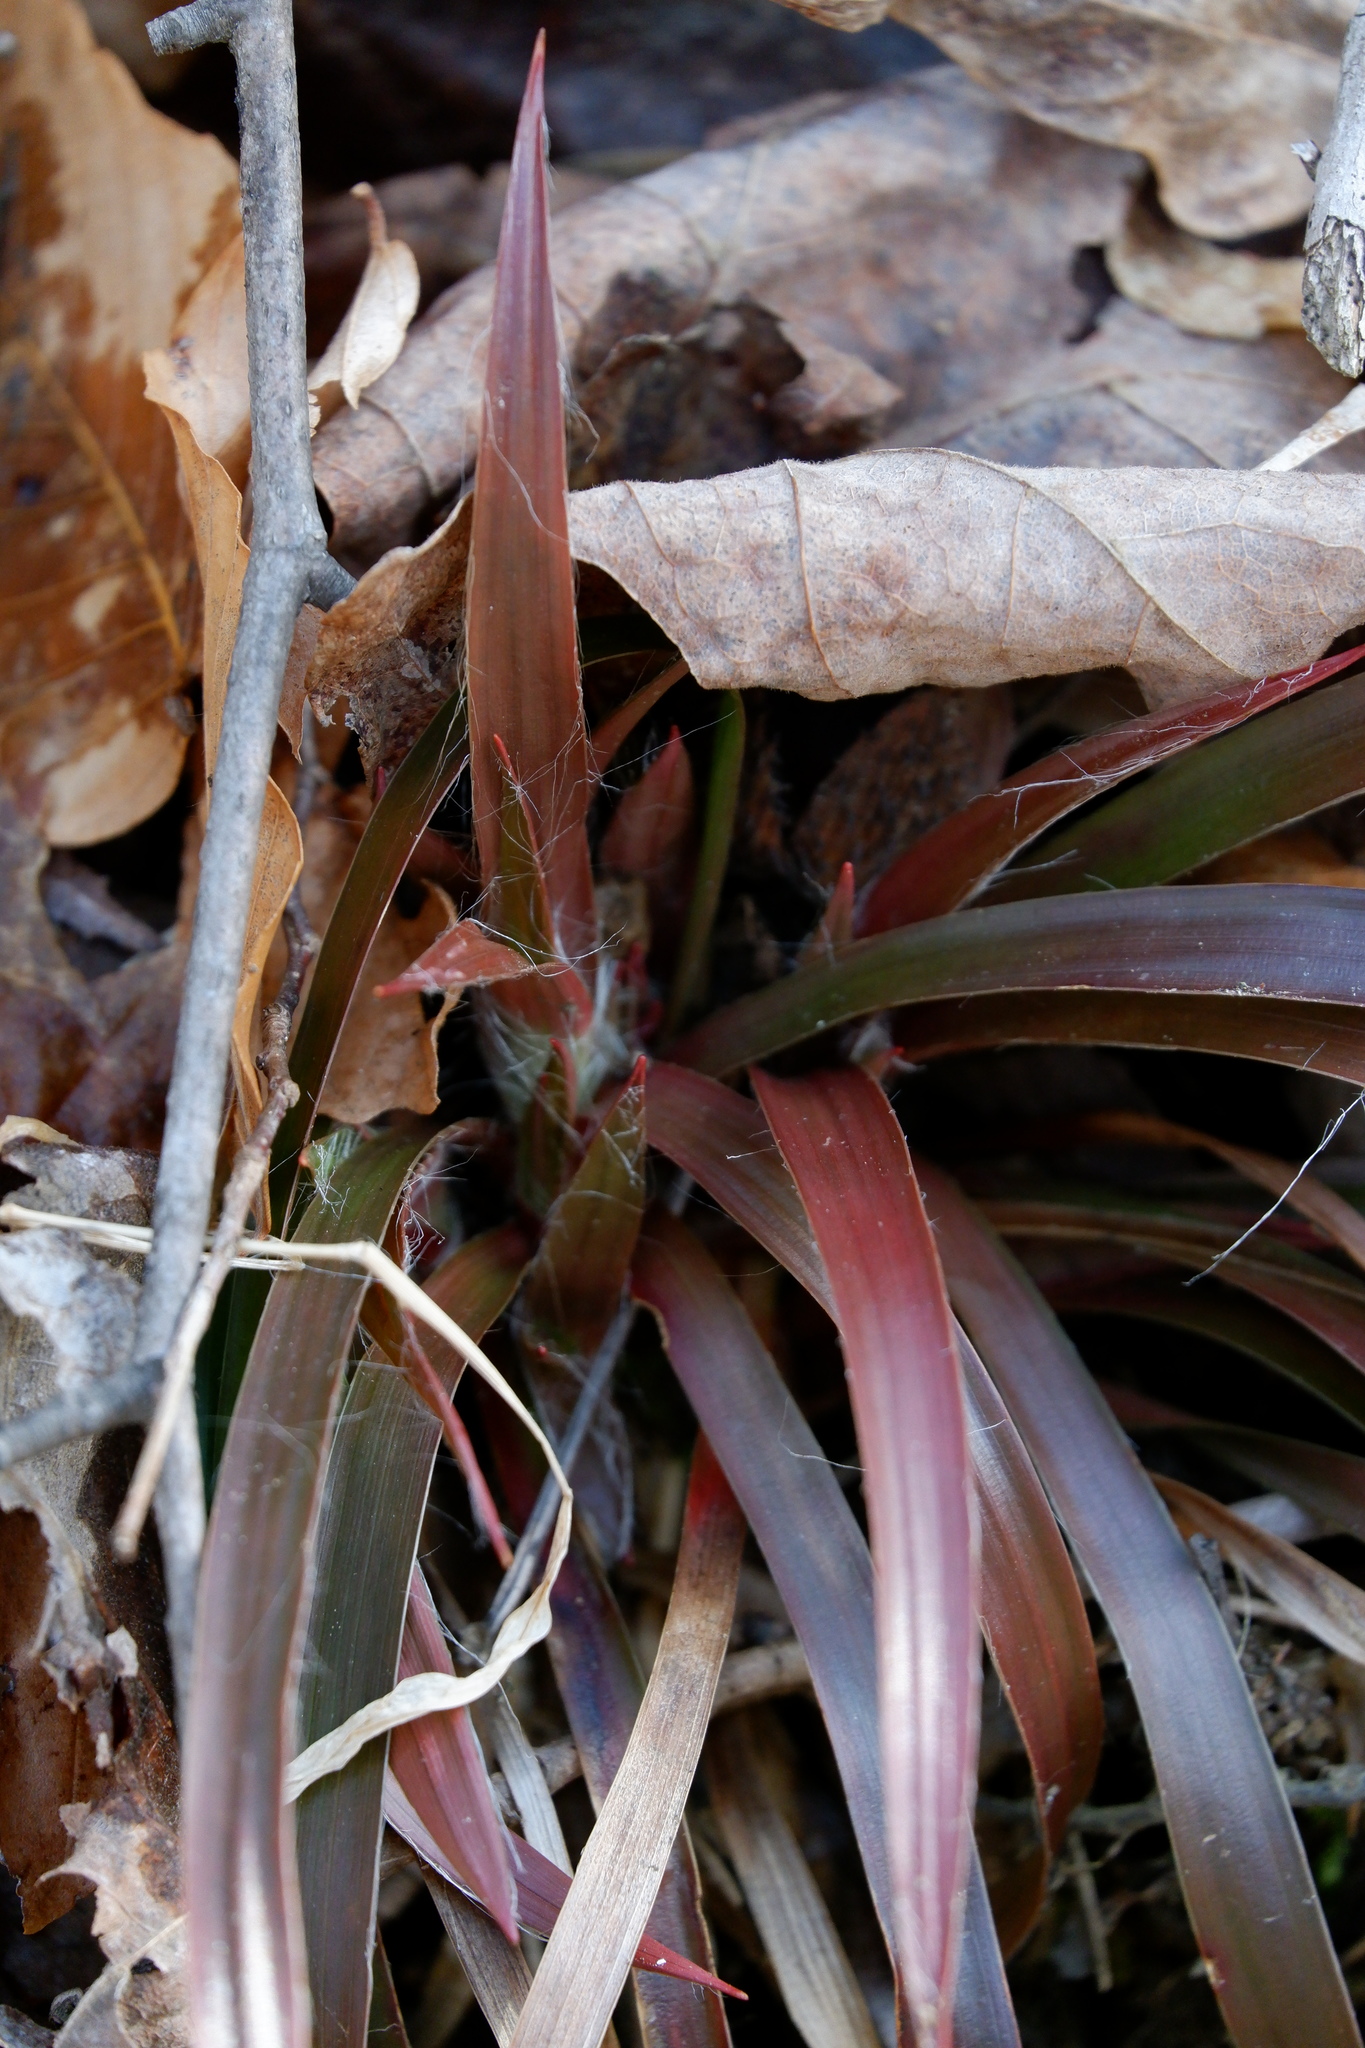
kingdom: Plantae
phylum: Tracheophyta
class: Liliopsida
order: Poales
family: Juncaceae
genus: Luzula
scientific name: Luzula acuminata
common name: Hairy woodrush
